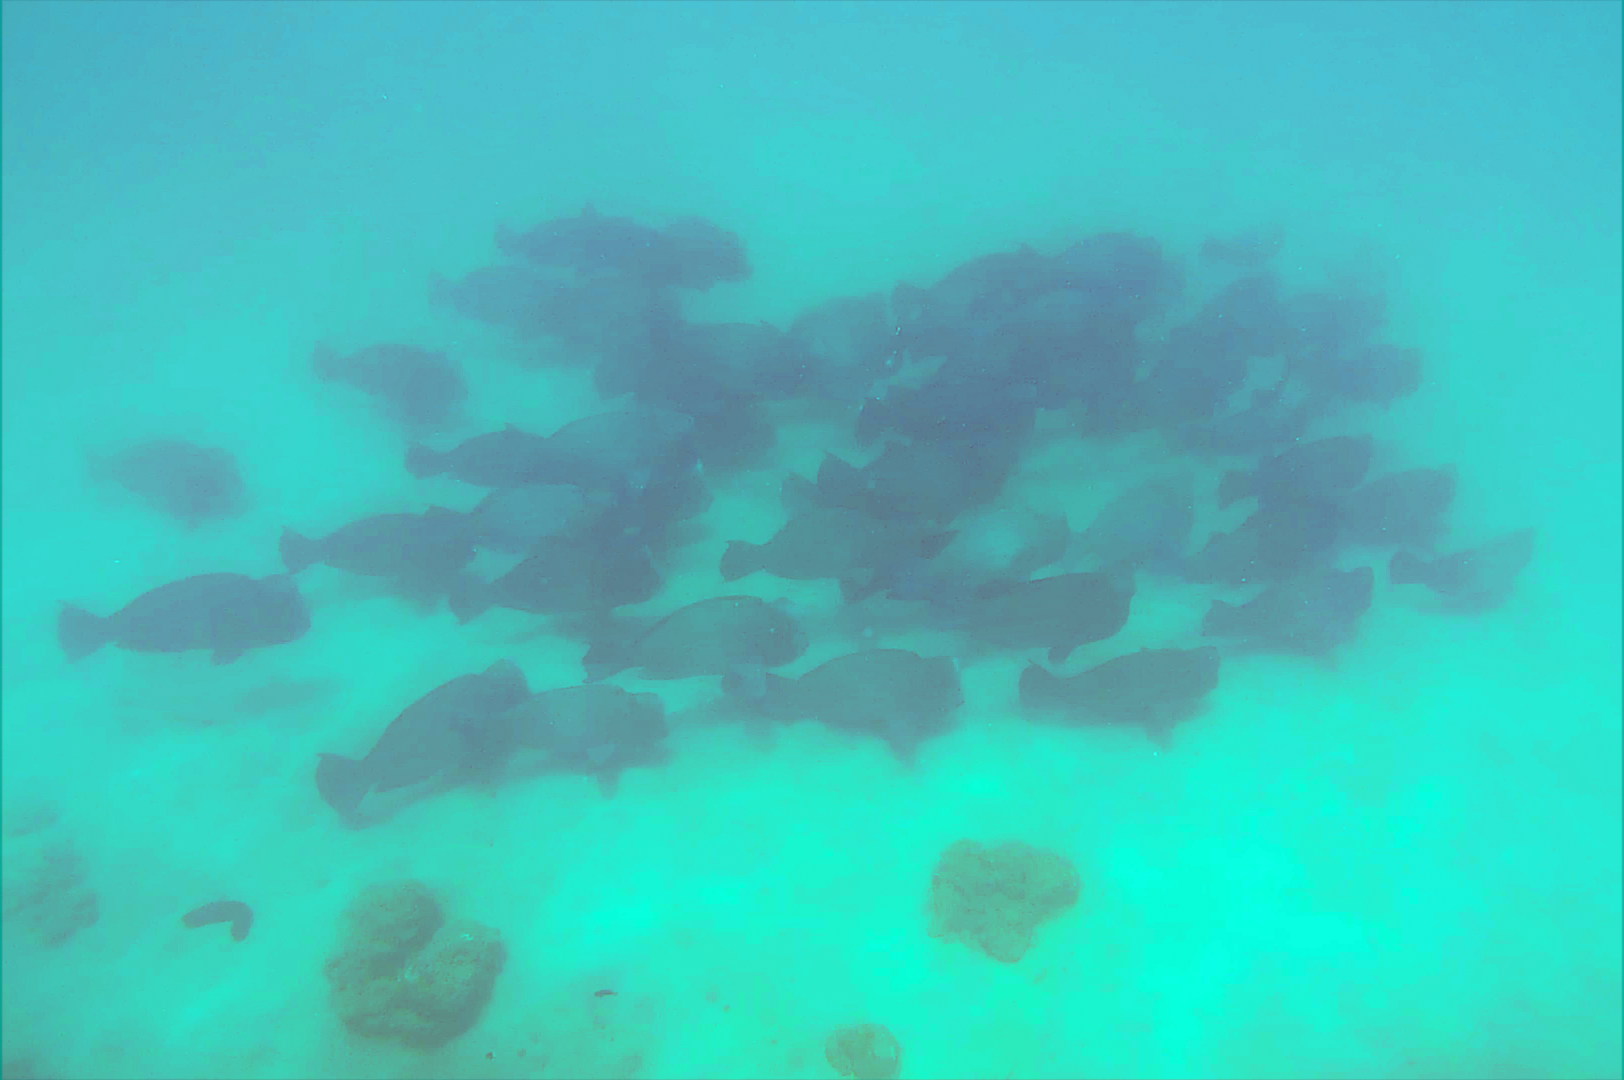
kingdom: Animalia
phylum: Chordata
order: Perciformes
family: Scaridae
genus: Bolbometopon
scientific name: Bolbometopon muricatum
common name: Humphead parrotfish
